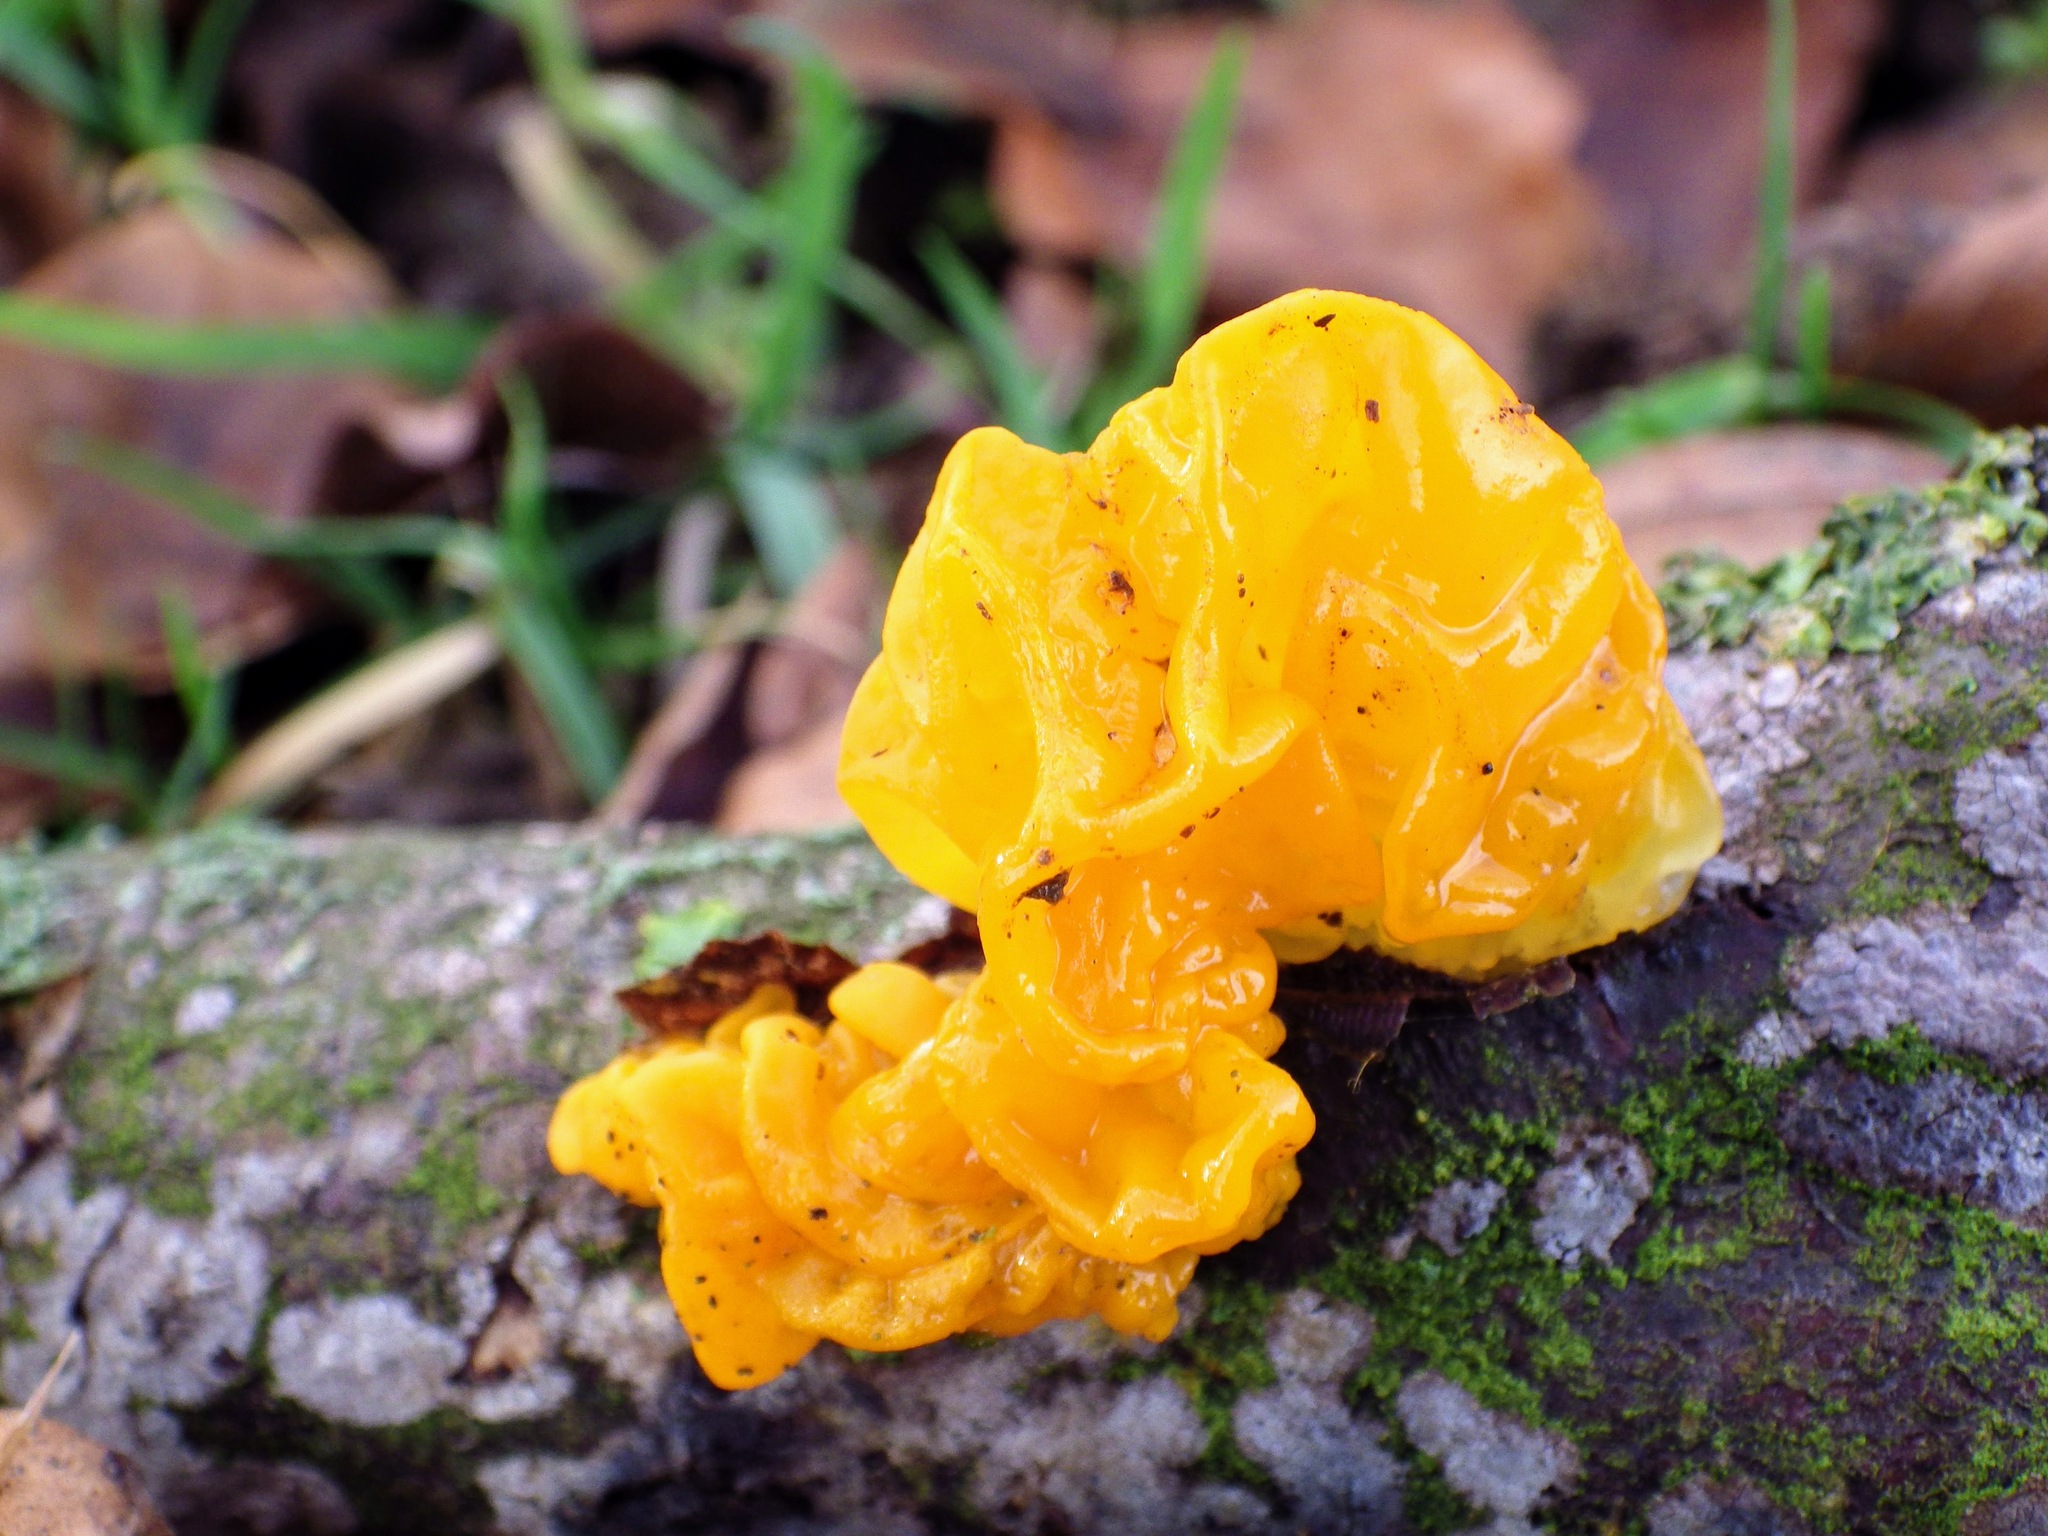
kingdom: Fungi
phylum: Basidiomycota
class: Tremellomycetes
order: Tremellales
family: Tremellaceae
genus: Tremella
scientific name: Tremella mesenterica
